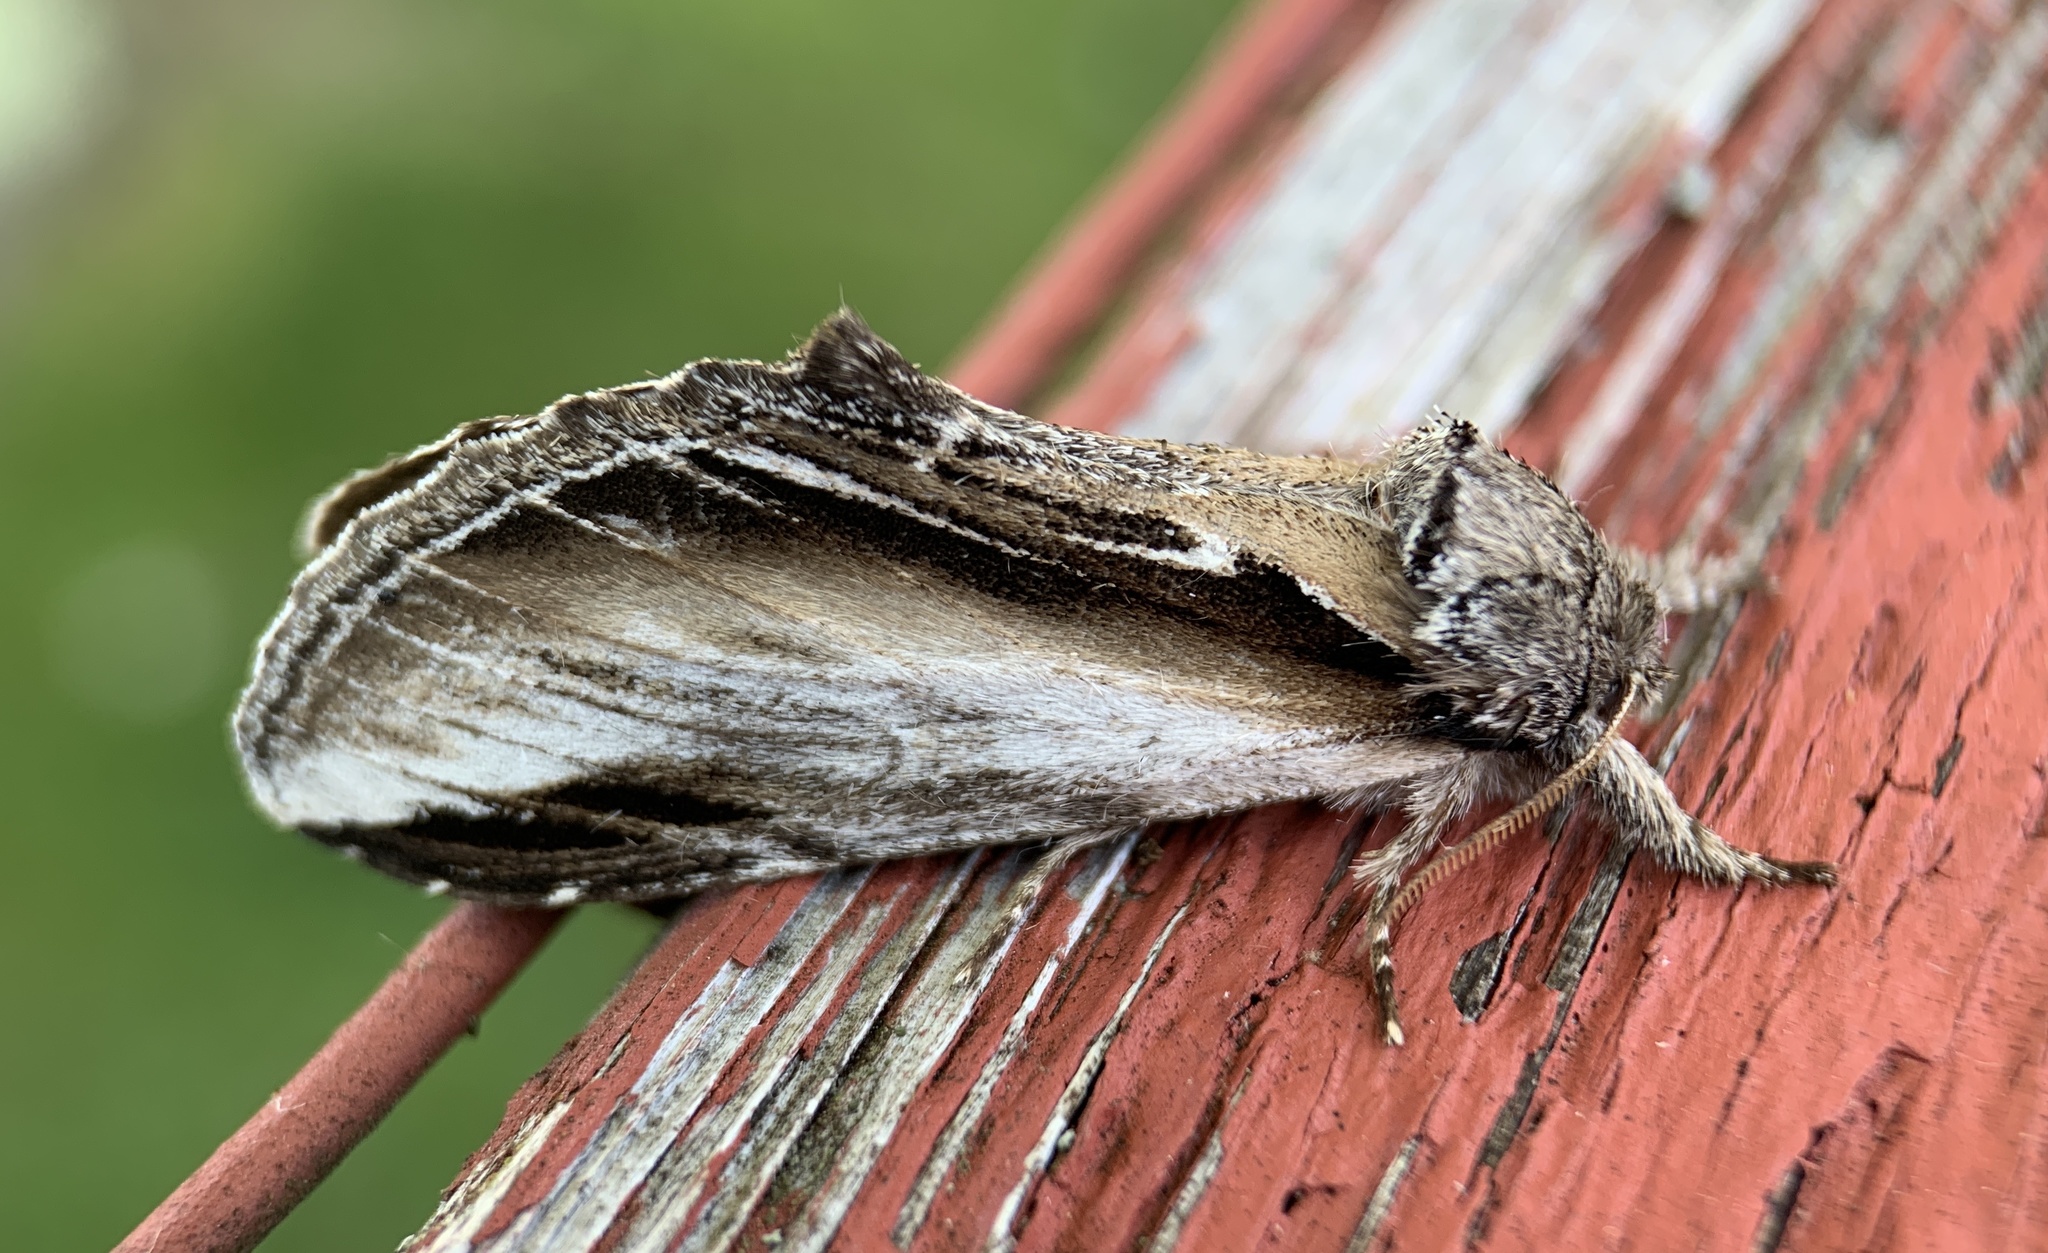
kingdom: Animalia
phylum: Arthropoda
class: Insecta
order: Lepidoptera
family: Notodontidae
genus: Pheosia
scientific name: Pheosia rimosa
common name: Black-rimmed prominent
